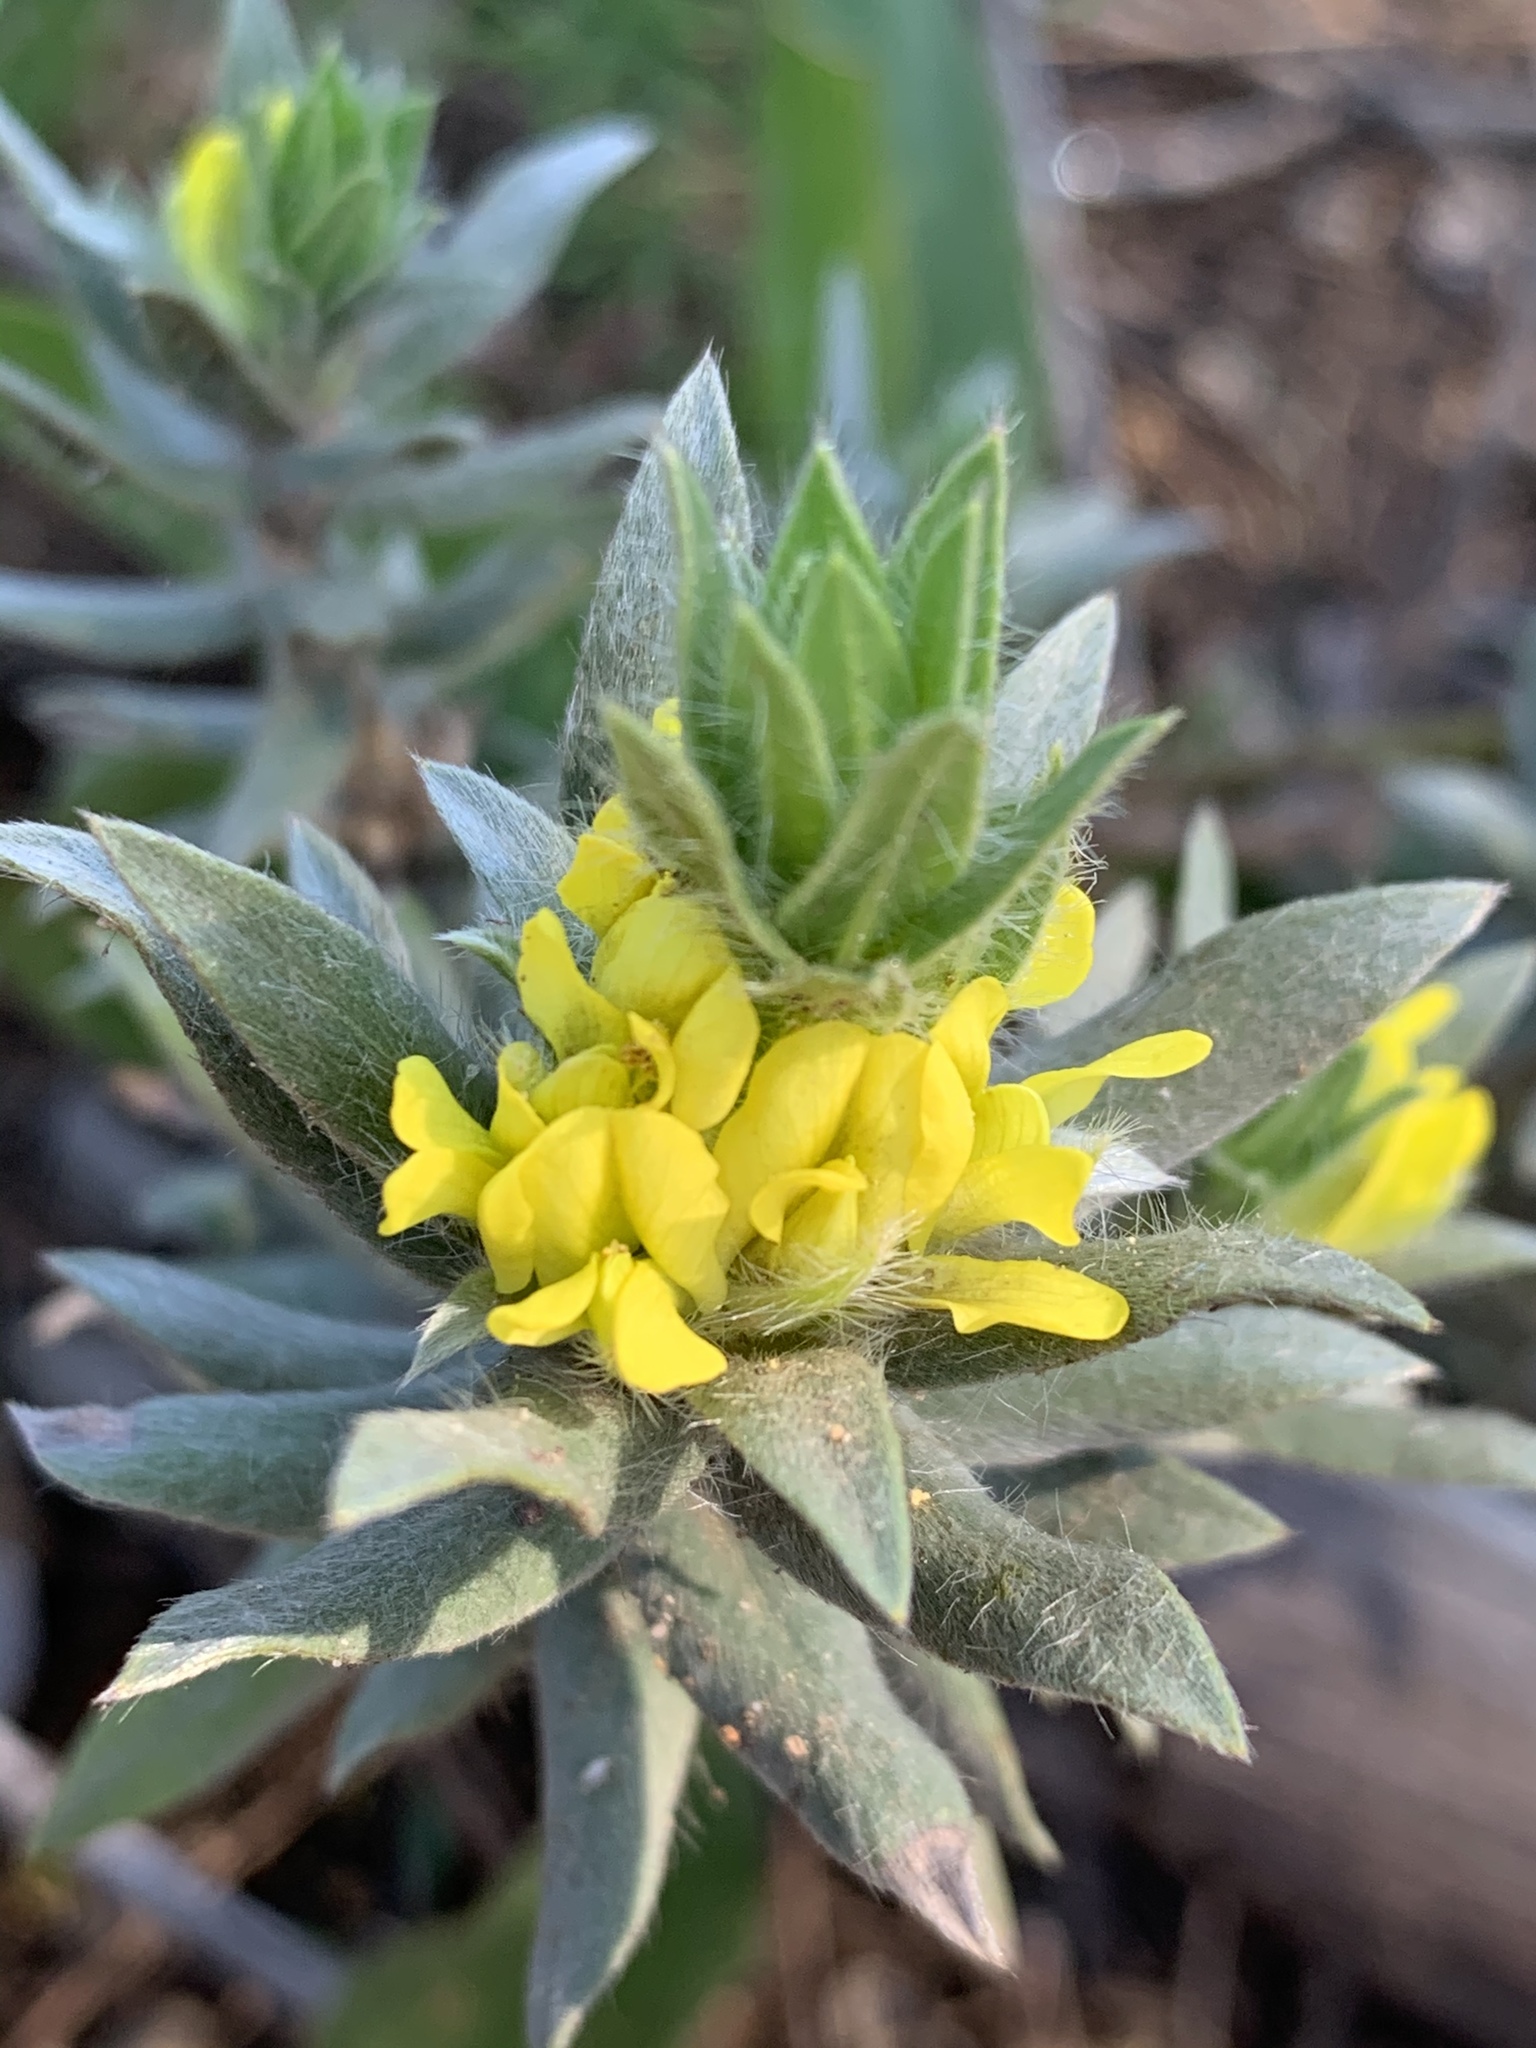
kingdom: Plantae
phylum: Tracheophyta
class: Magnoliopsida
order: Fabales
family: Fabaceae
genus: Xiphotheca
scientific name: Xiphotheca lanceolata
